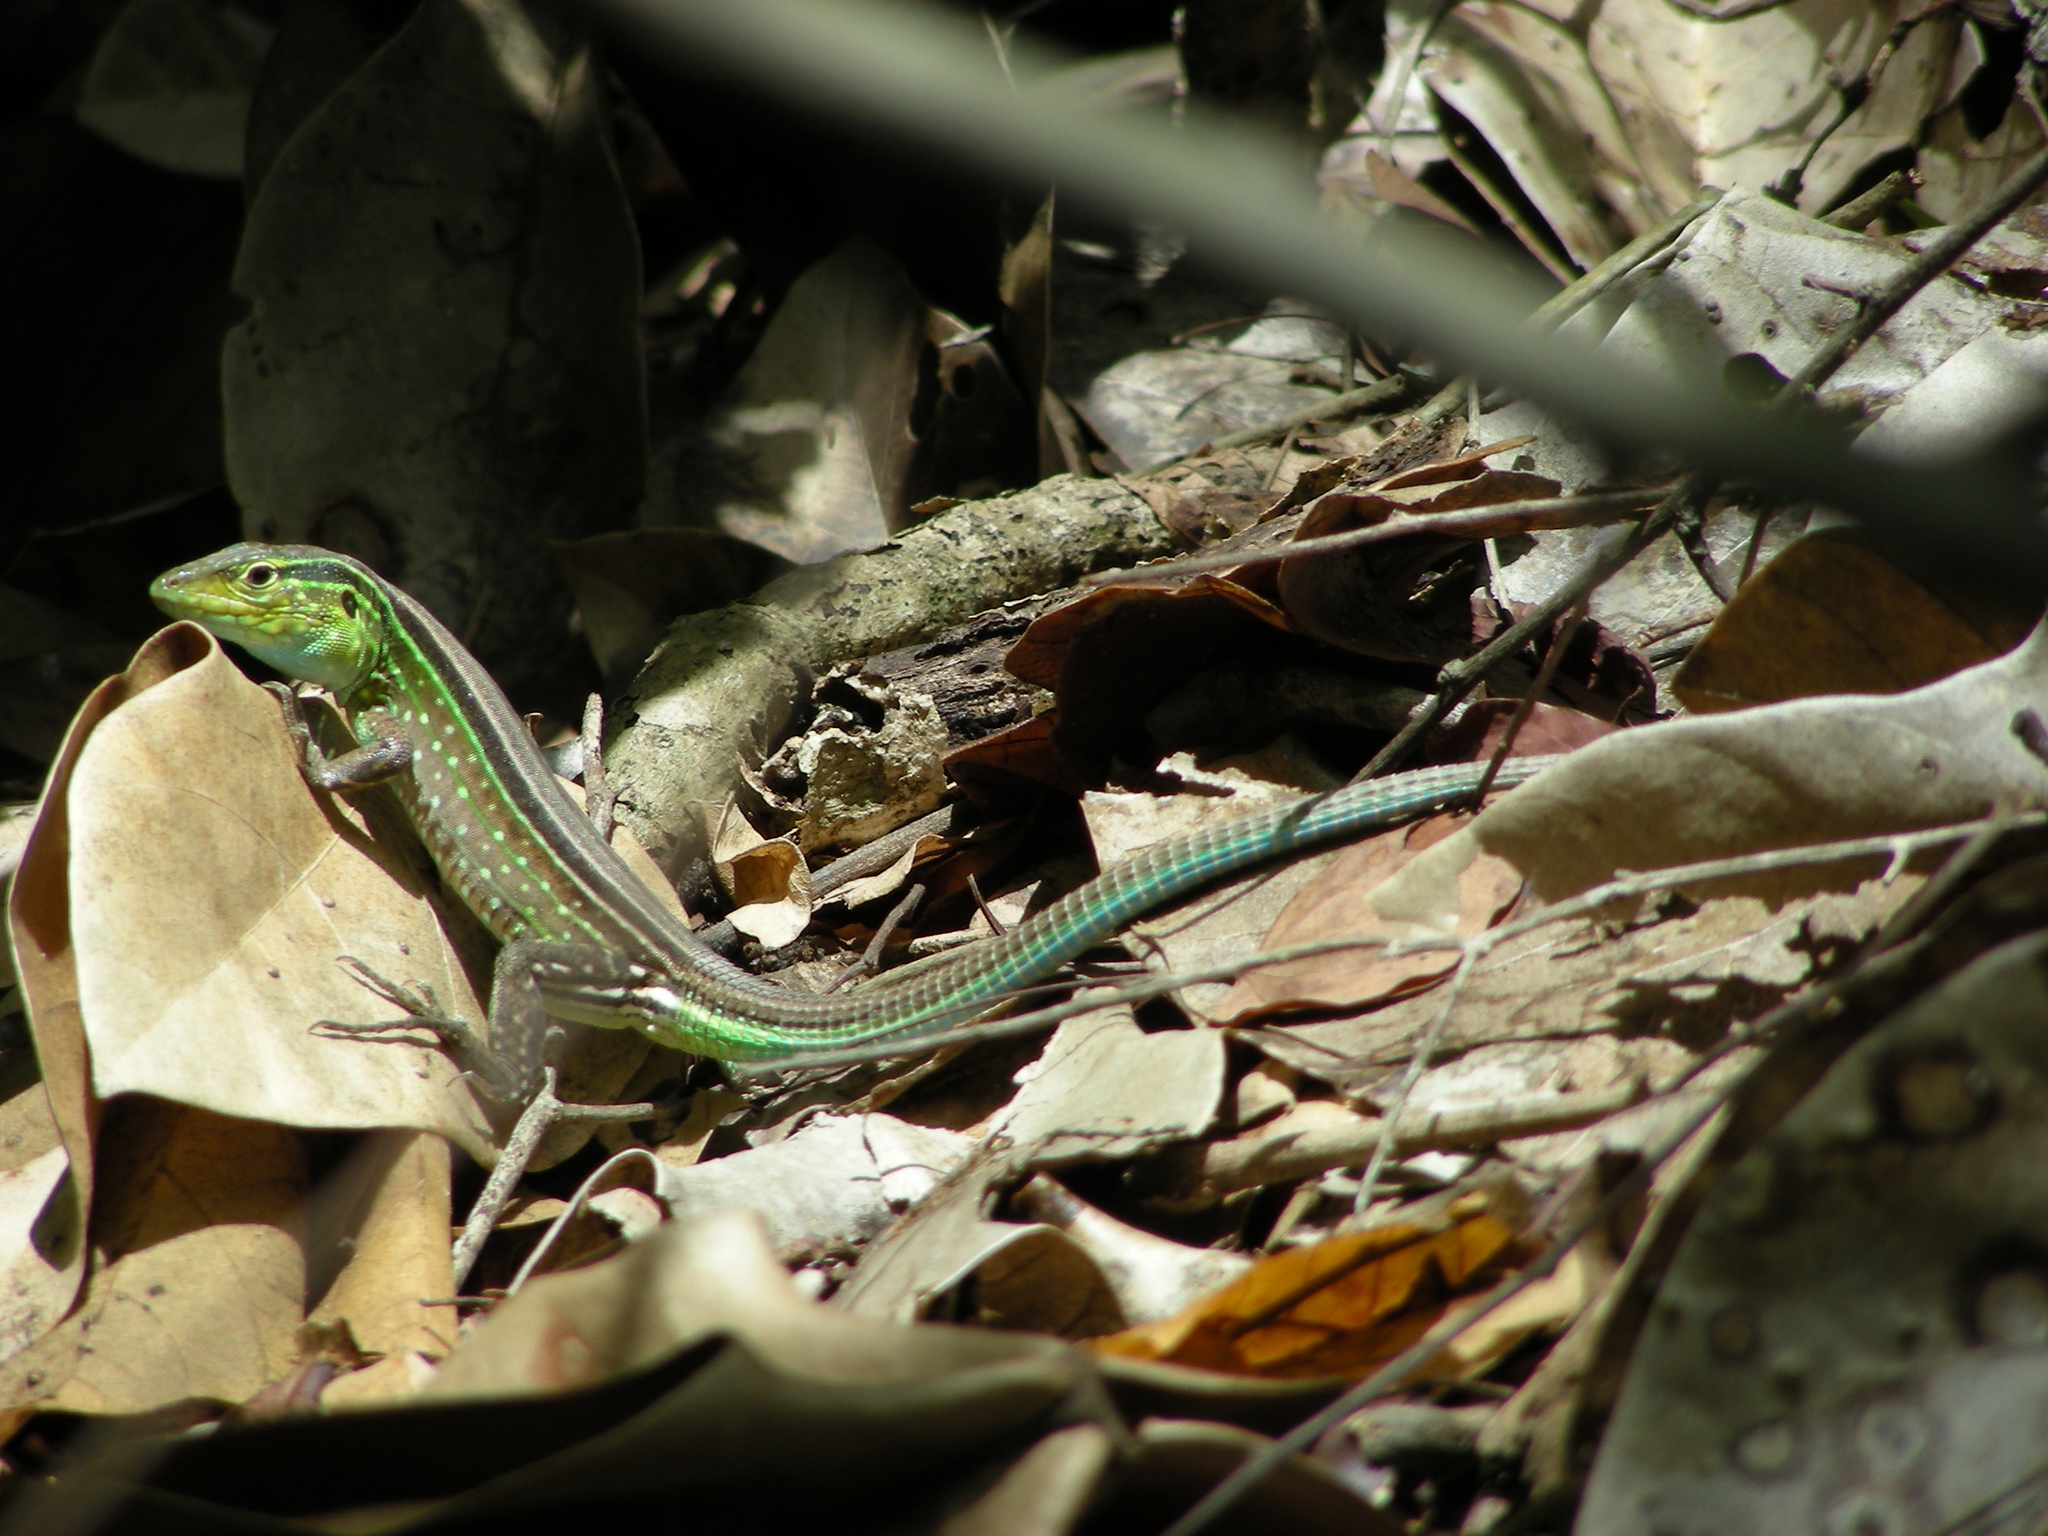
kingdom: Animalia
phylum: Chordata
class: Squamata
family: Teiidae
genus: Cnemidophorus
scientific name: Cnemidophorus gaigei
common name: Gaige’s rainbow lizard
